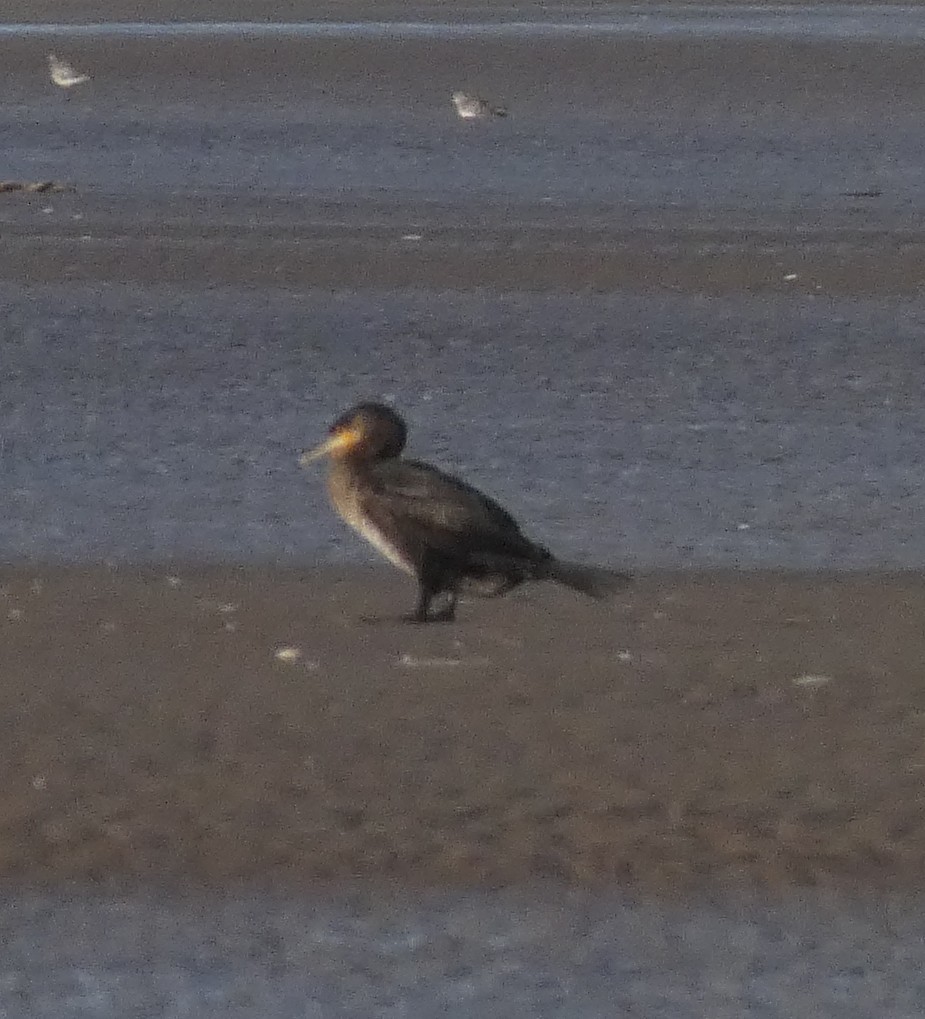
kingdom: Animalia
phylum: Chordata
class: Aves
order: Suliformes
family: Phalacrocoracidae
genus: Phalacrocorax
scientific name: Phalacrocorax carbo
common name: Great cormorant
